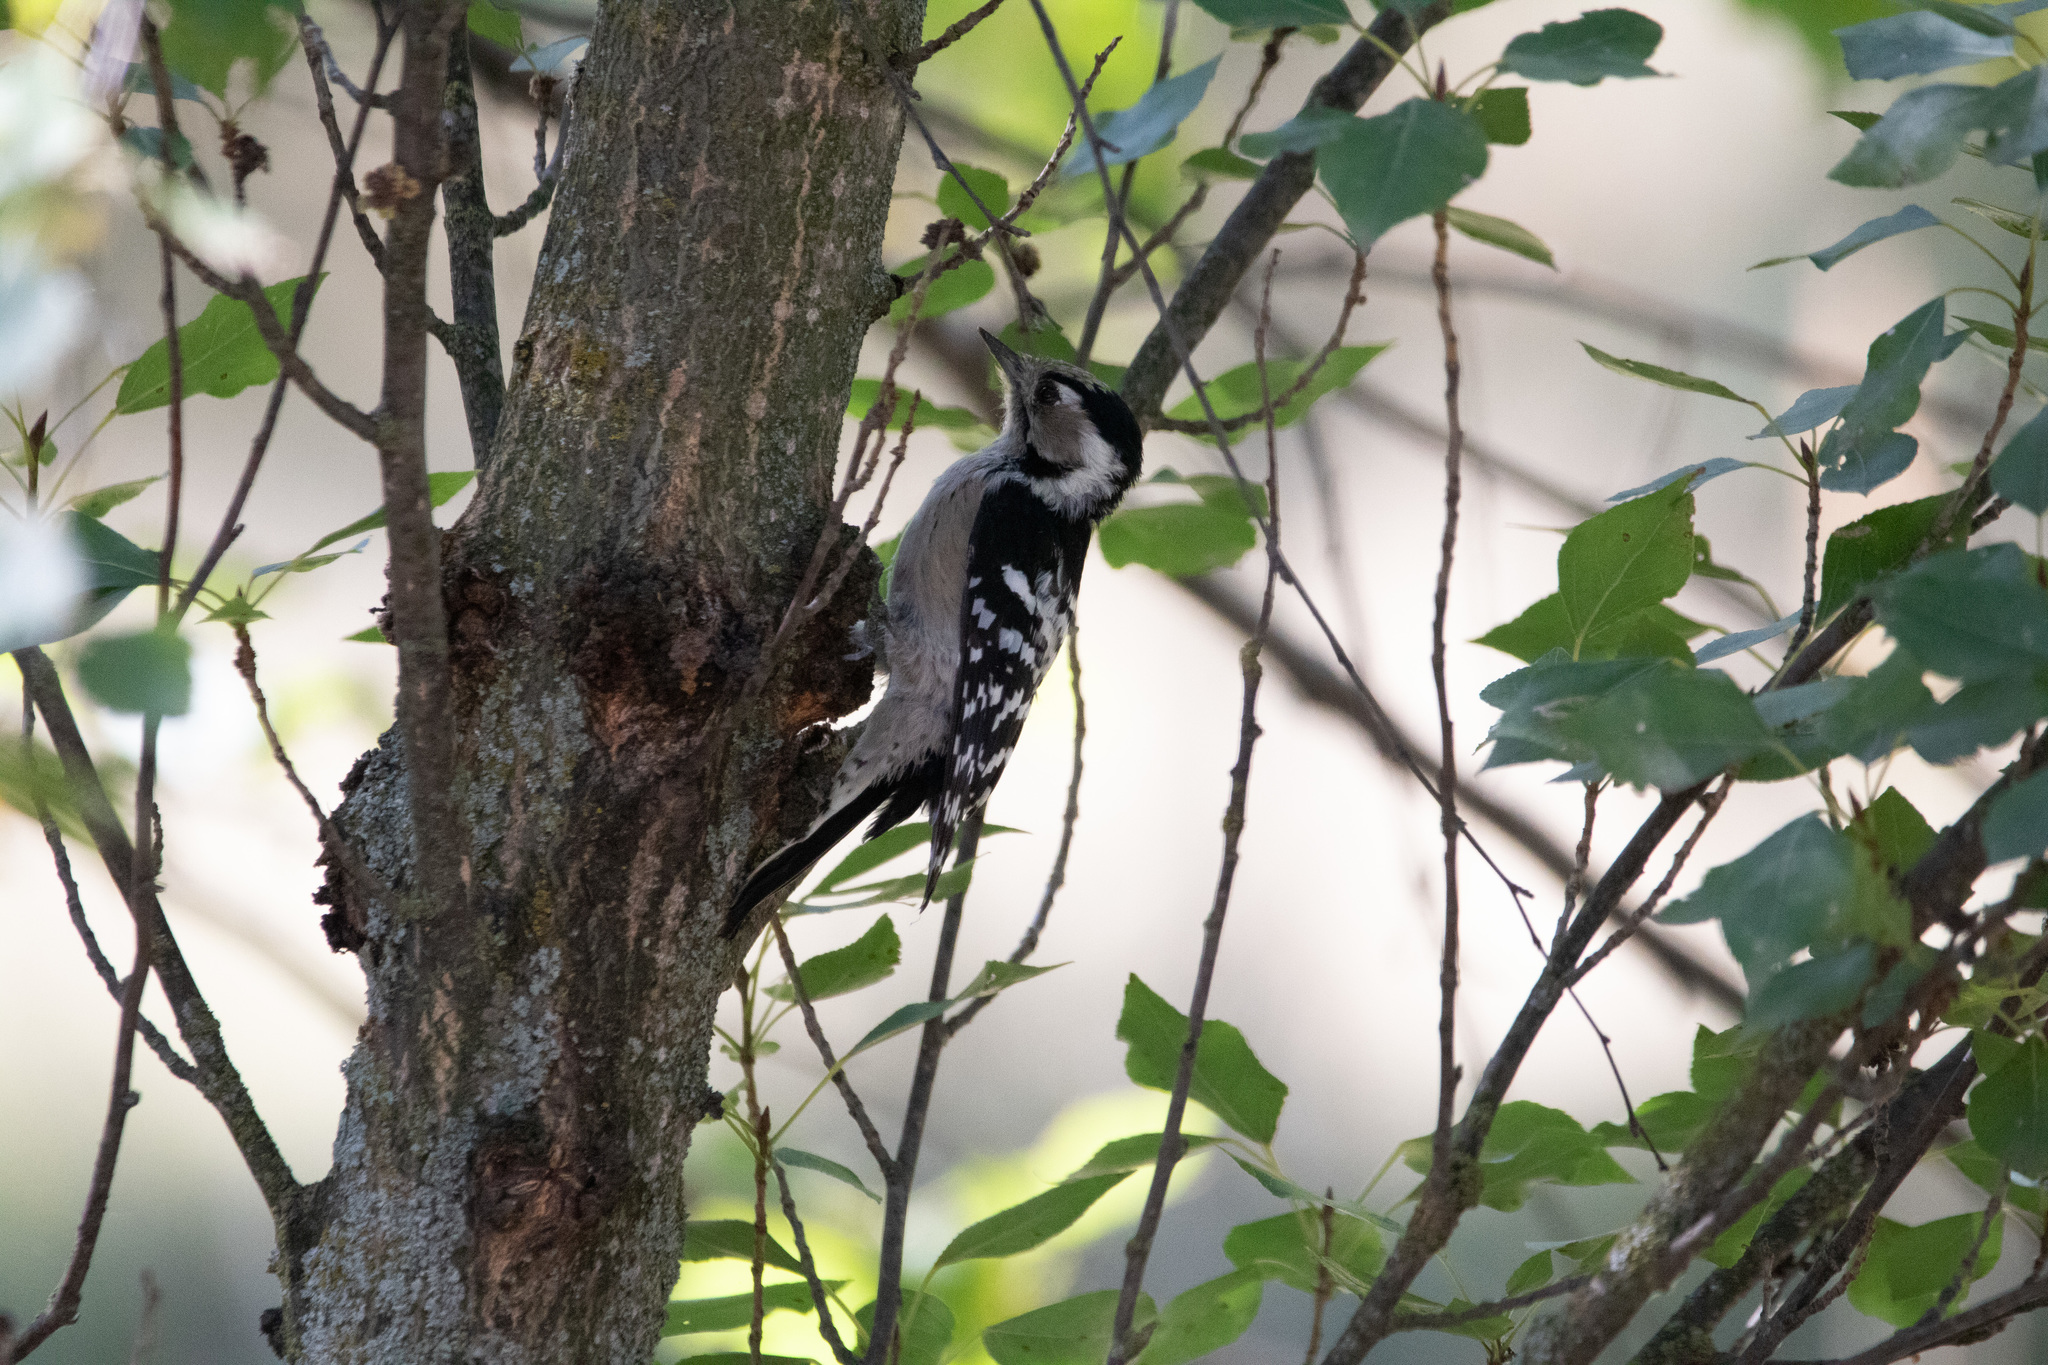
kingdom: Animalia
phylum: Chordata
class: Aves
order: Piciformes
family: Picidae
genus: Dryobates
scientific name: Dryobates minor
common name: Lesser spotted woodpecker
